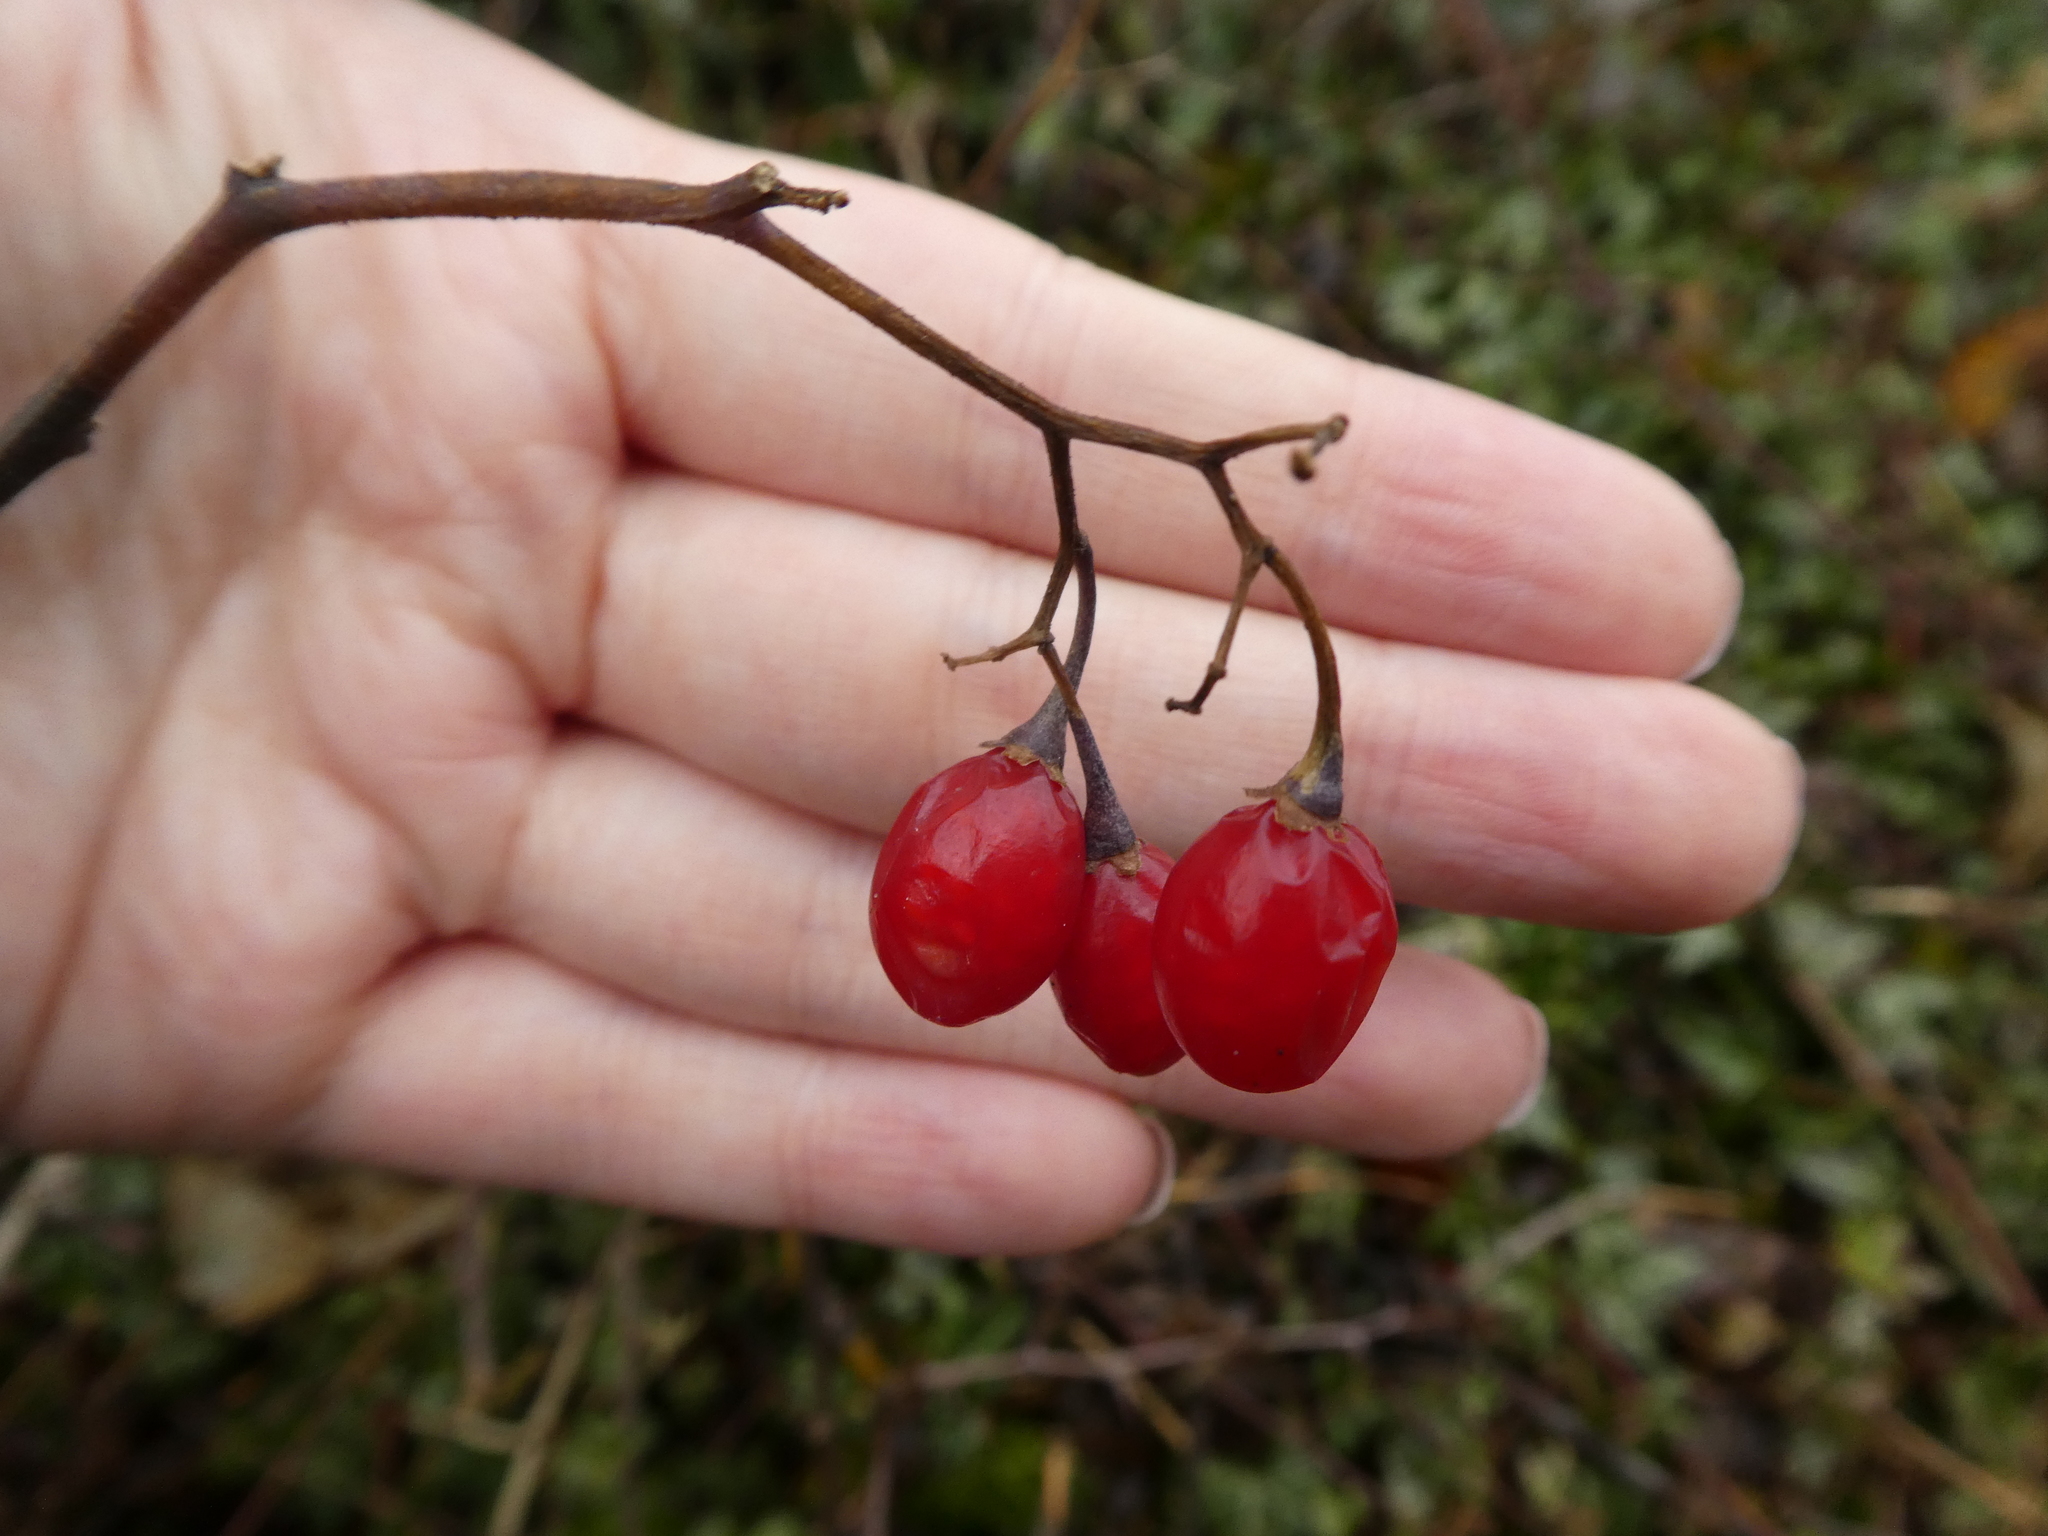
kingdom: Plantae
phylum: Tracheophyta
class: Magnoliopsida
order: Solanales
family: Solanaceae
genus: Solanum
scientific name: Solanum dulcamara
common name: Climbing nightshade
